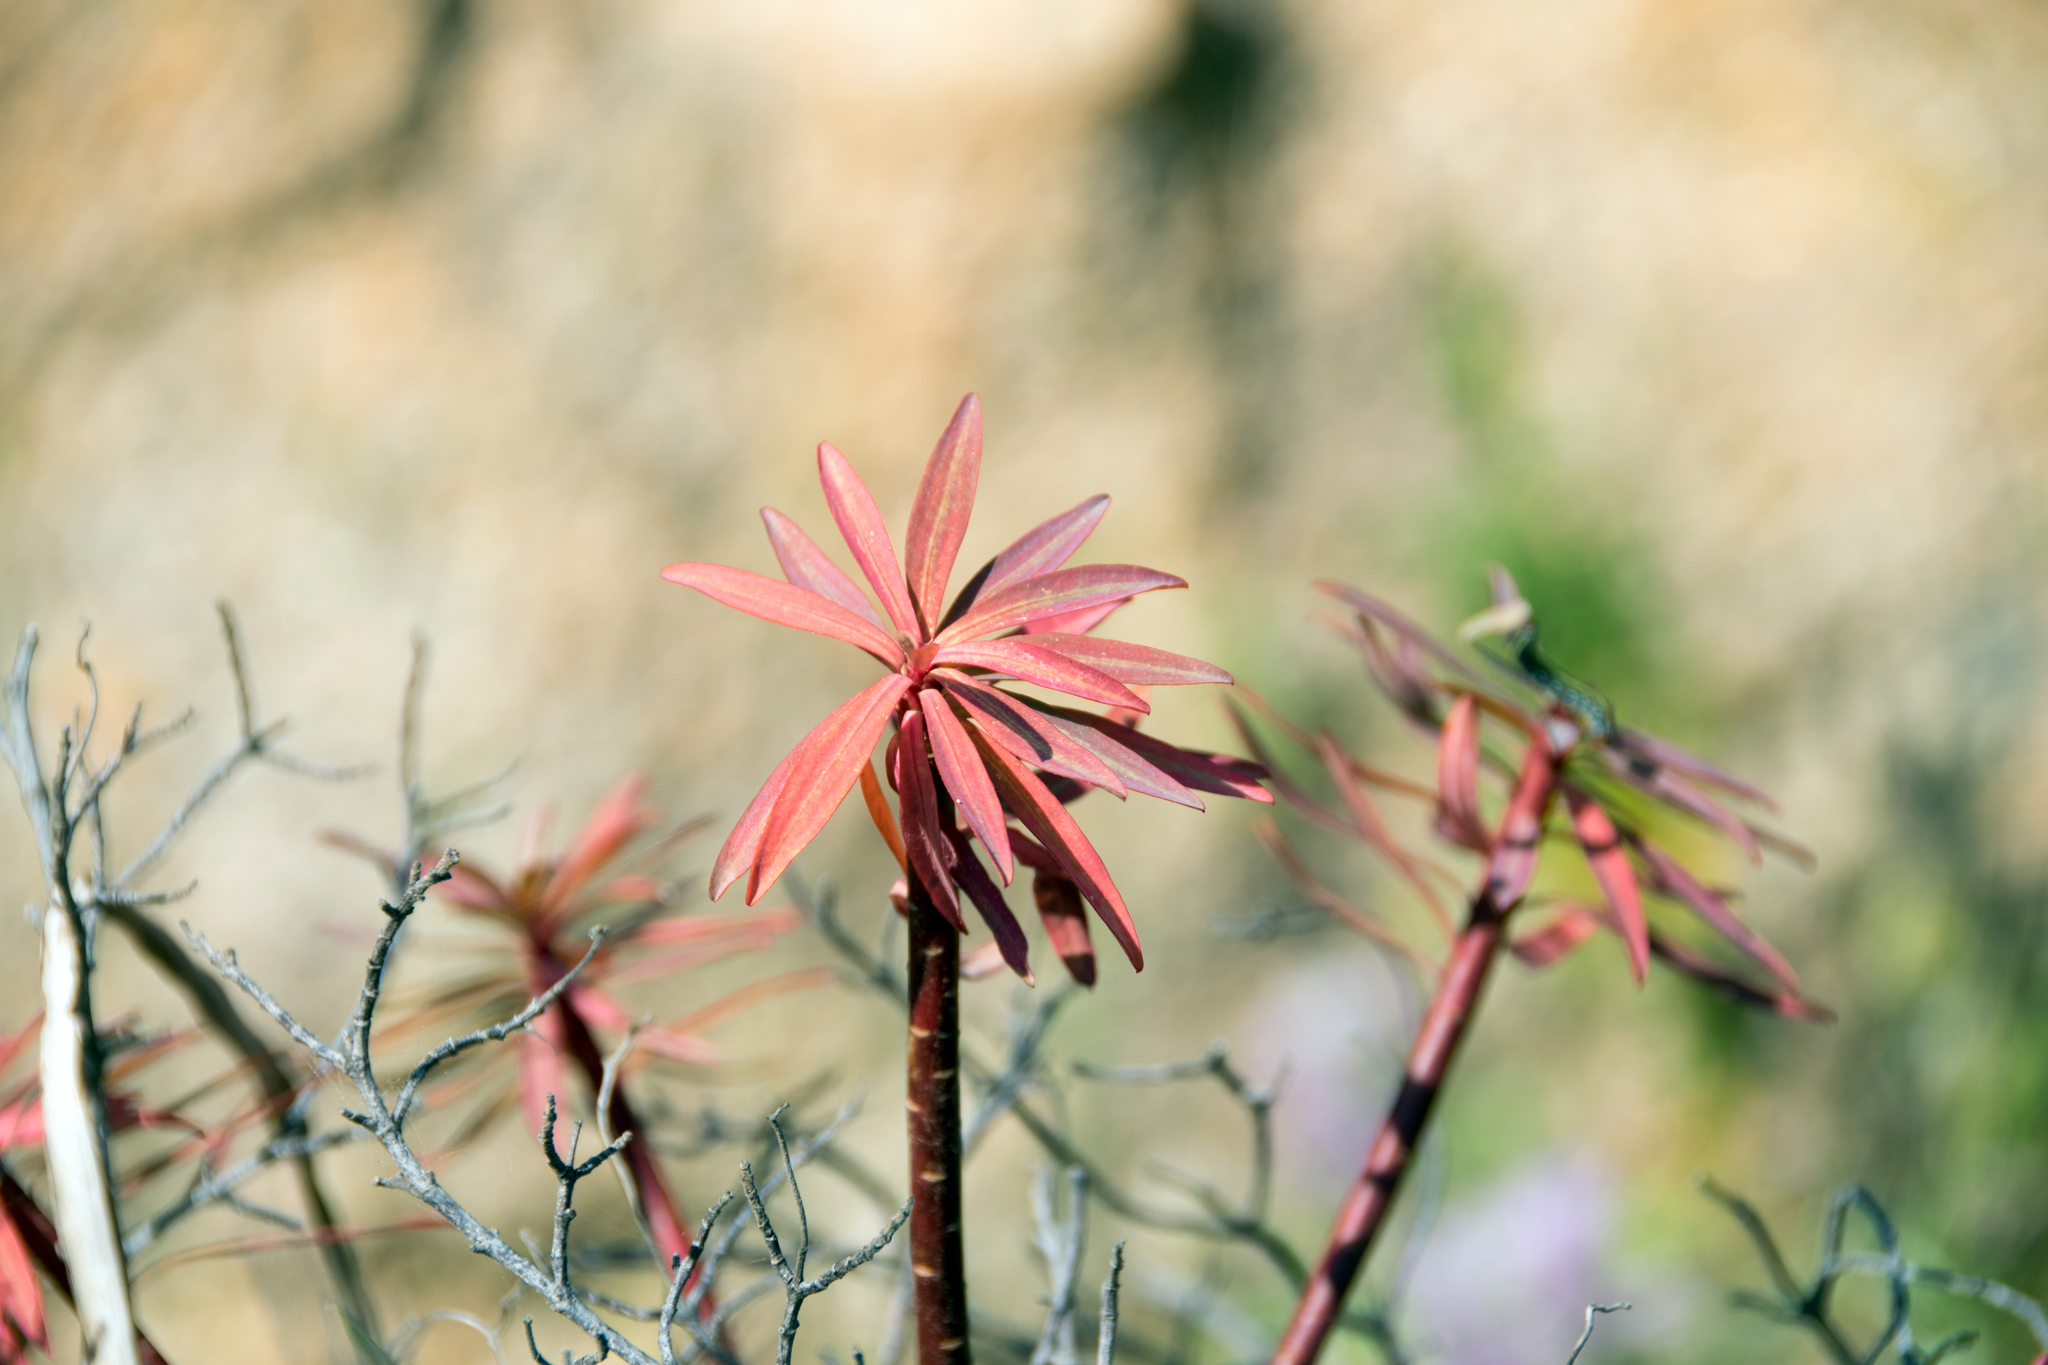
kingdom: Plantae
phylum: Tracheophyta
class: Magnoliopsida
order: Malpighiales
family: Euphorbiaceae
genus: Euphorbia
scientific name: Euphorbia dendroides
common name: Tree spurge
